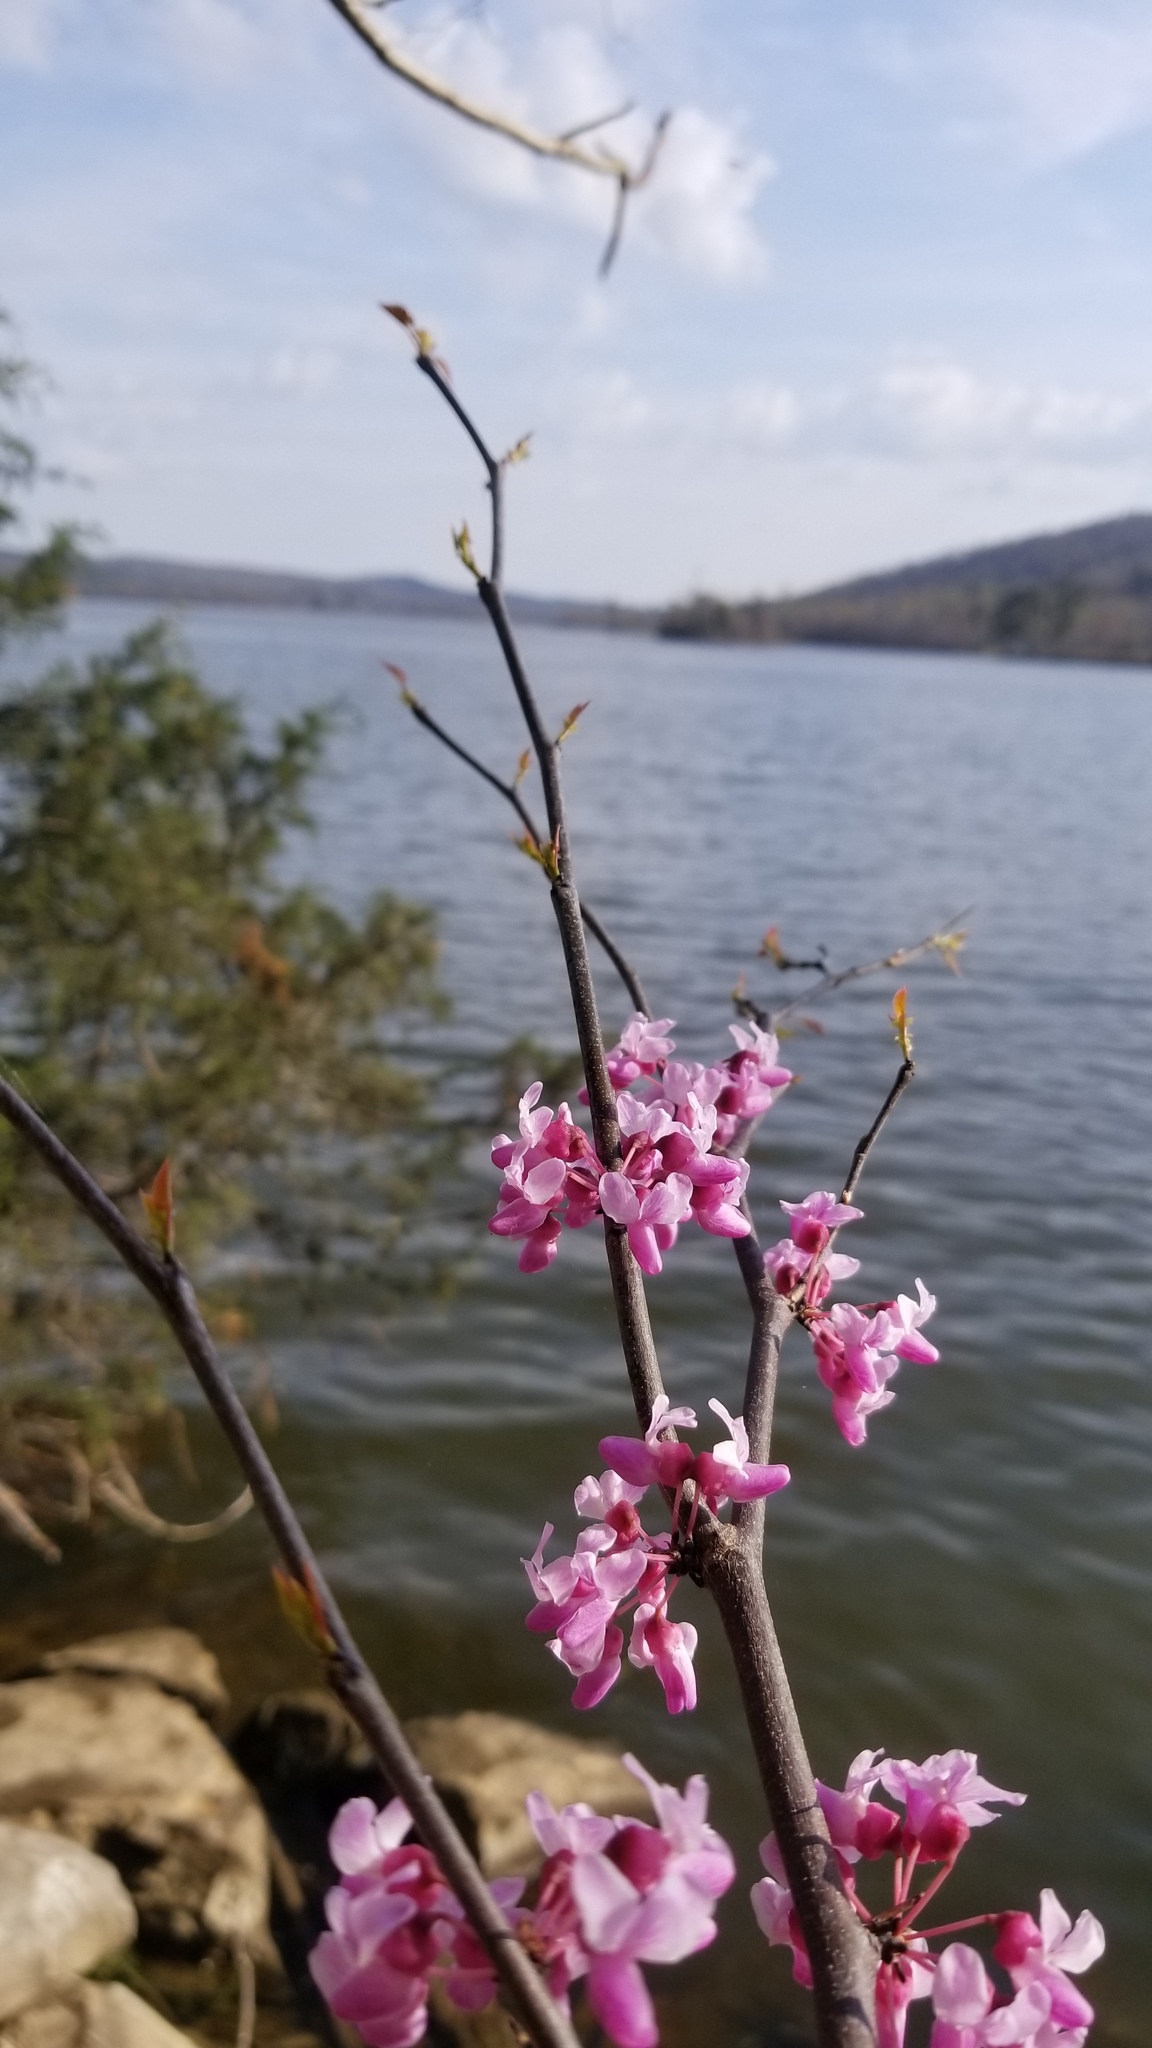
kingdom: Plantae
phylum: Tracheophyta
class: Magnoliopsida
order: Fabales
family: Fabaceae
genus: Cercis
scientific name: Cercis canadensis
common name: Eastern redbud
